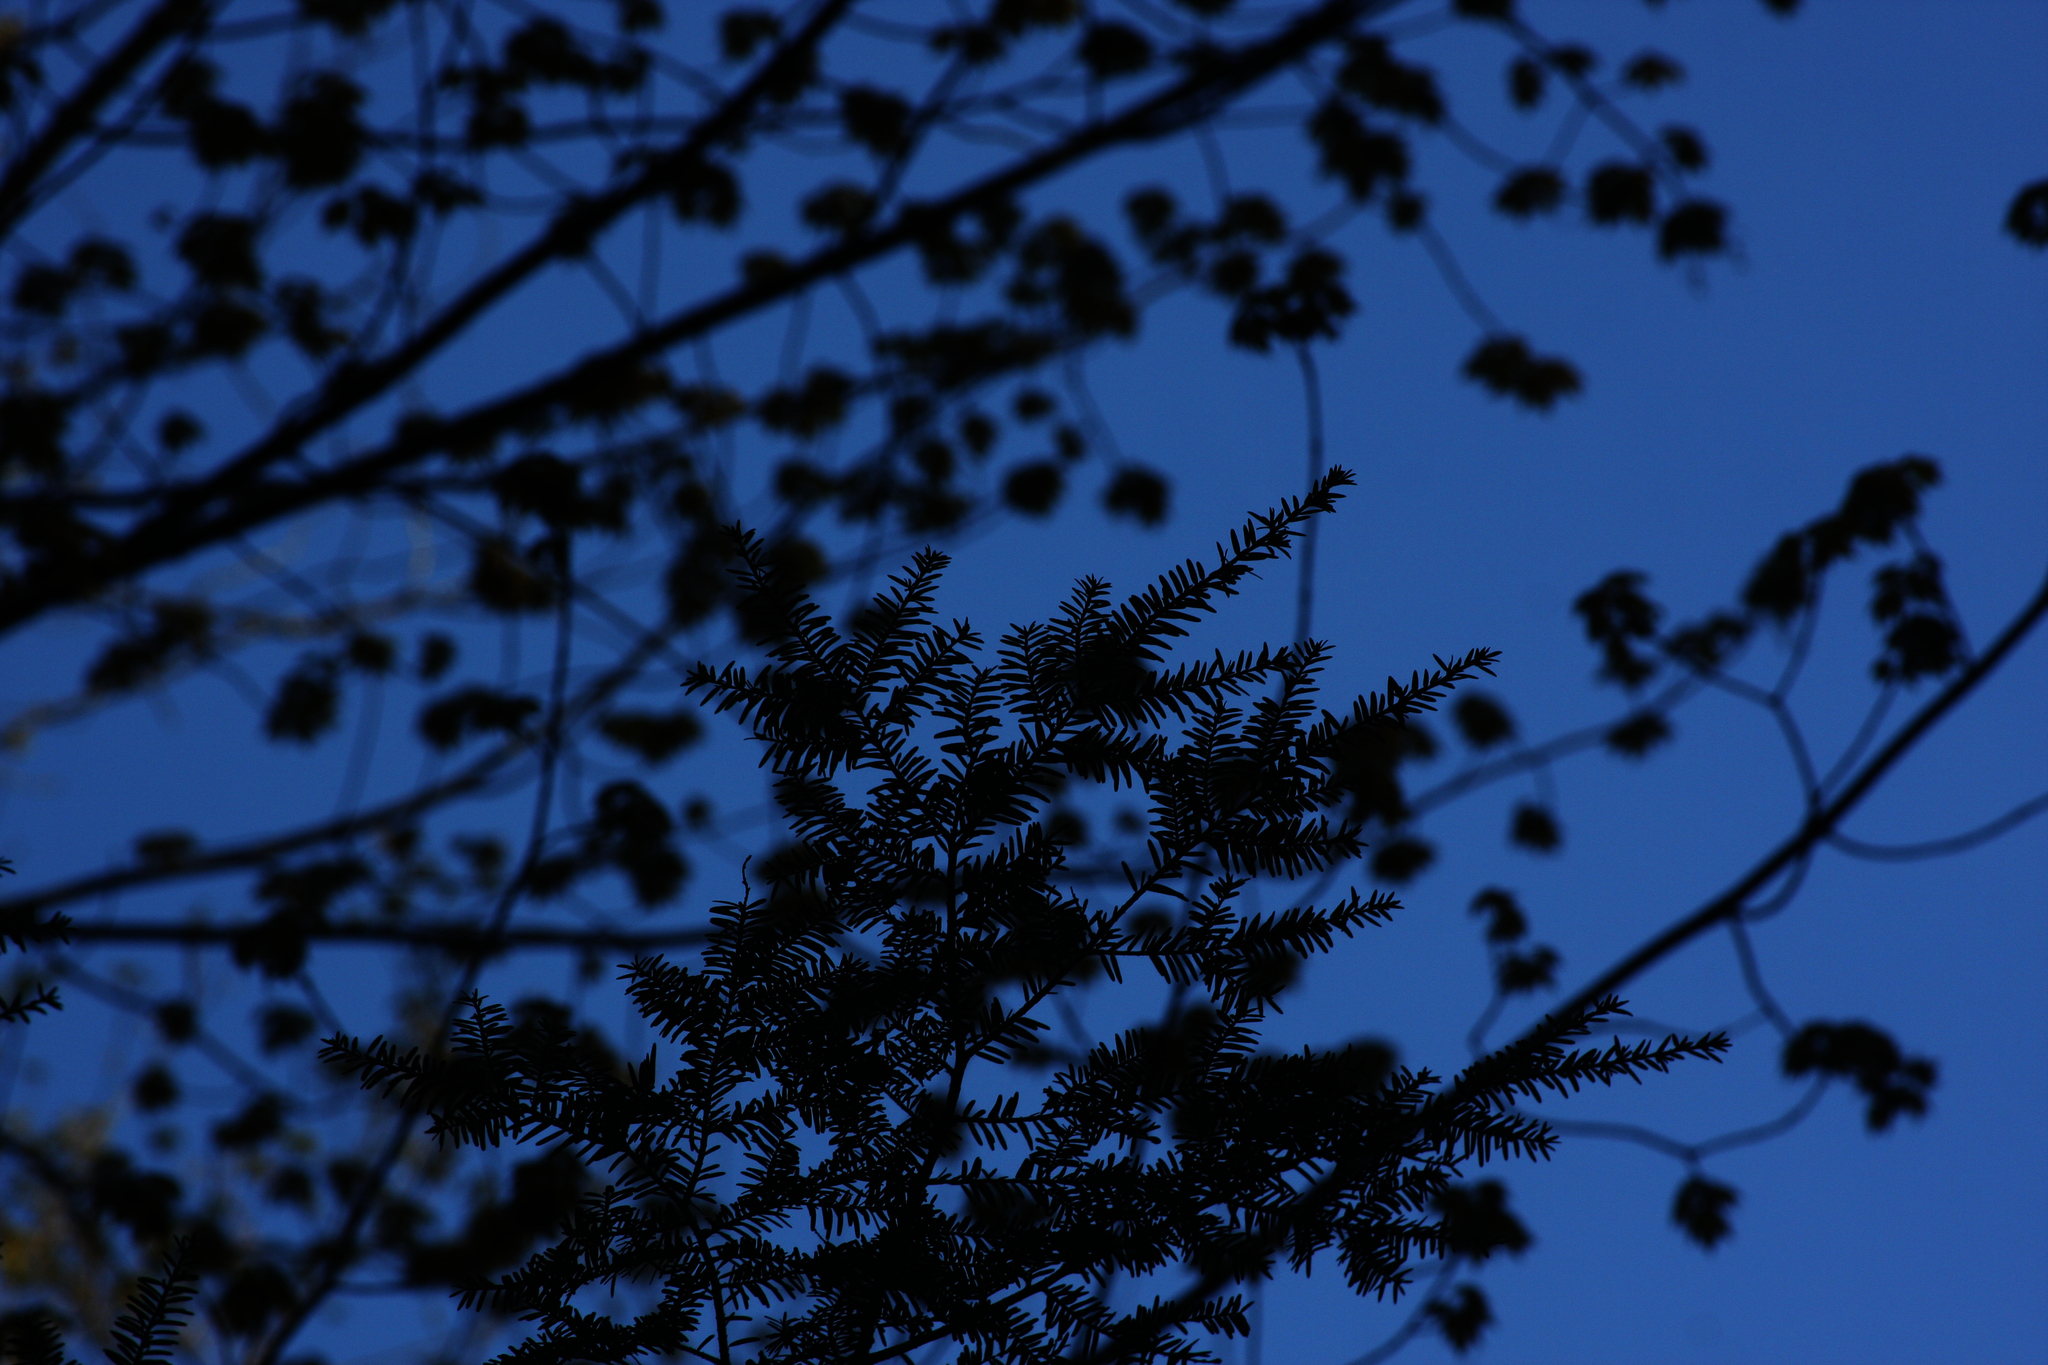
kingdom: Plantae
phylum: Tracheophyta
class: Pinopsida
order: Pinales
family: Pinaceae
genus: Tsuga
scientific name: Tsuga canadensis
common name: Eastern hemlock
